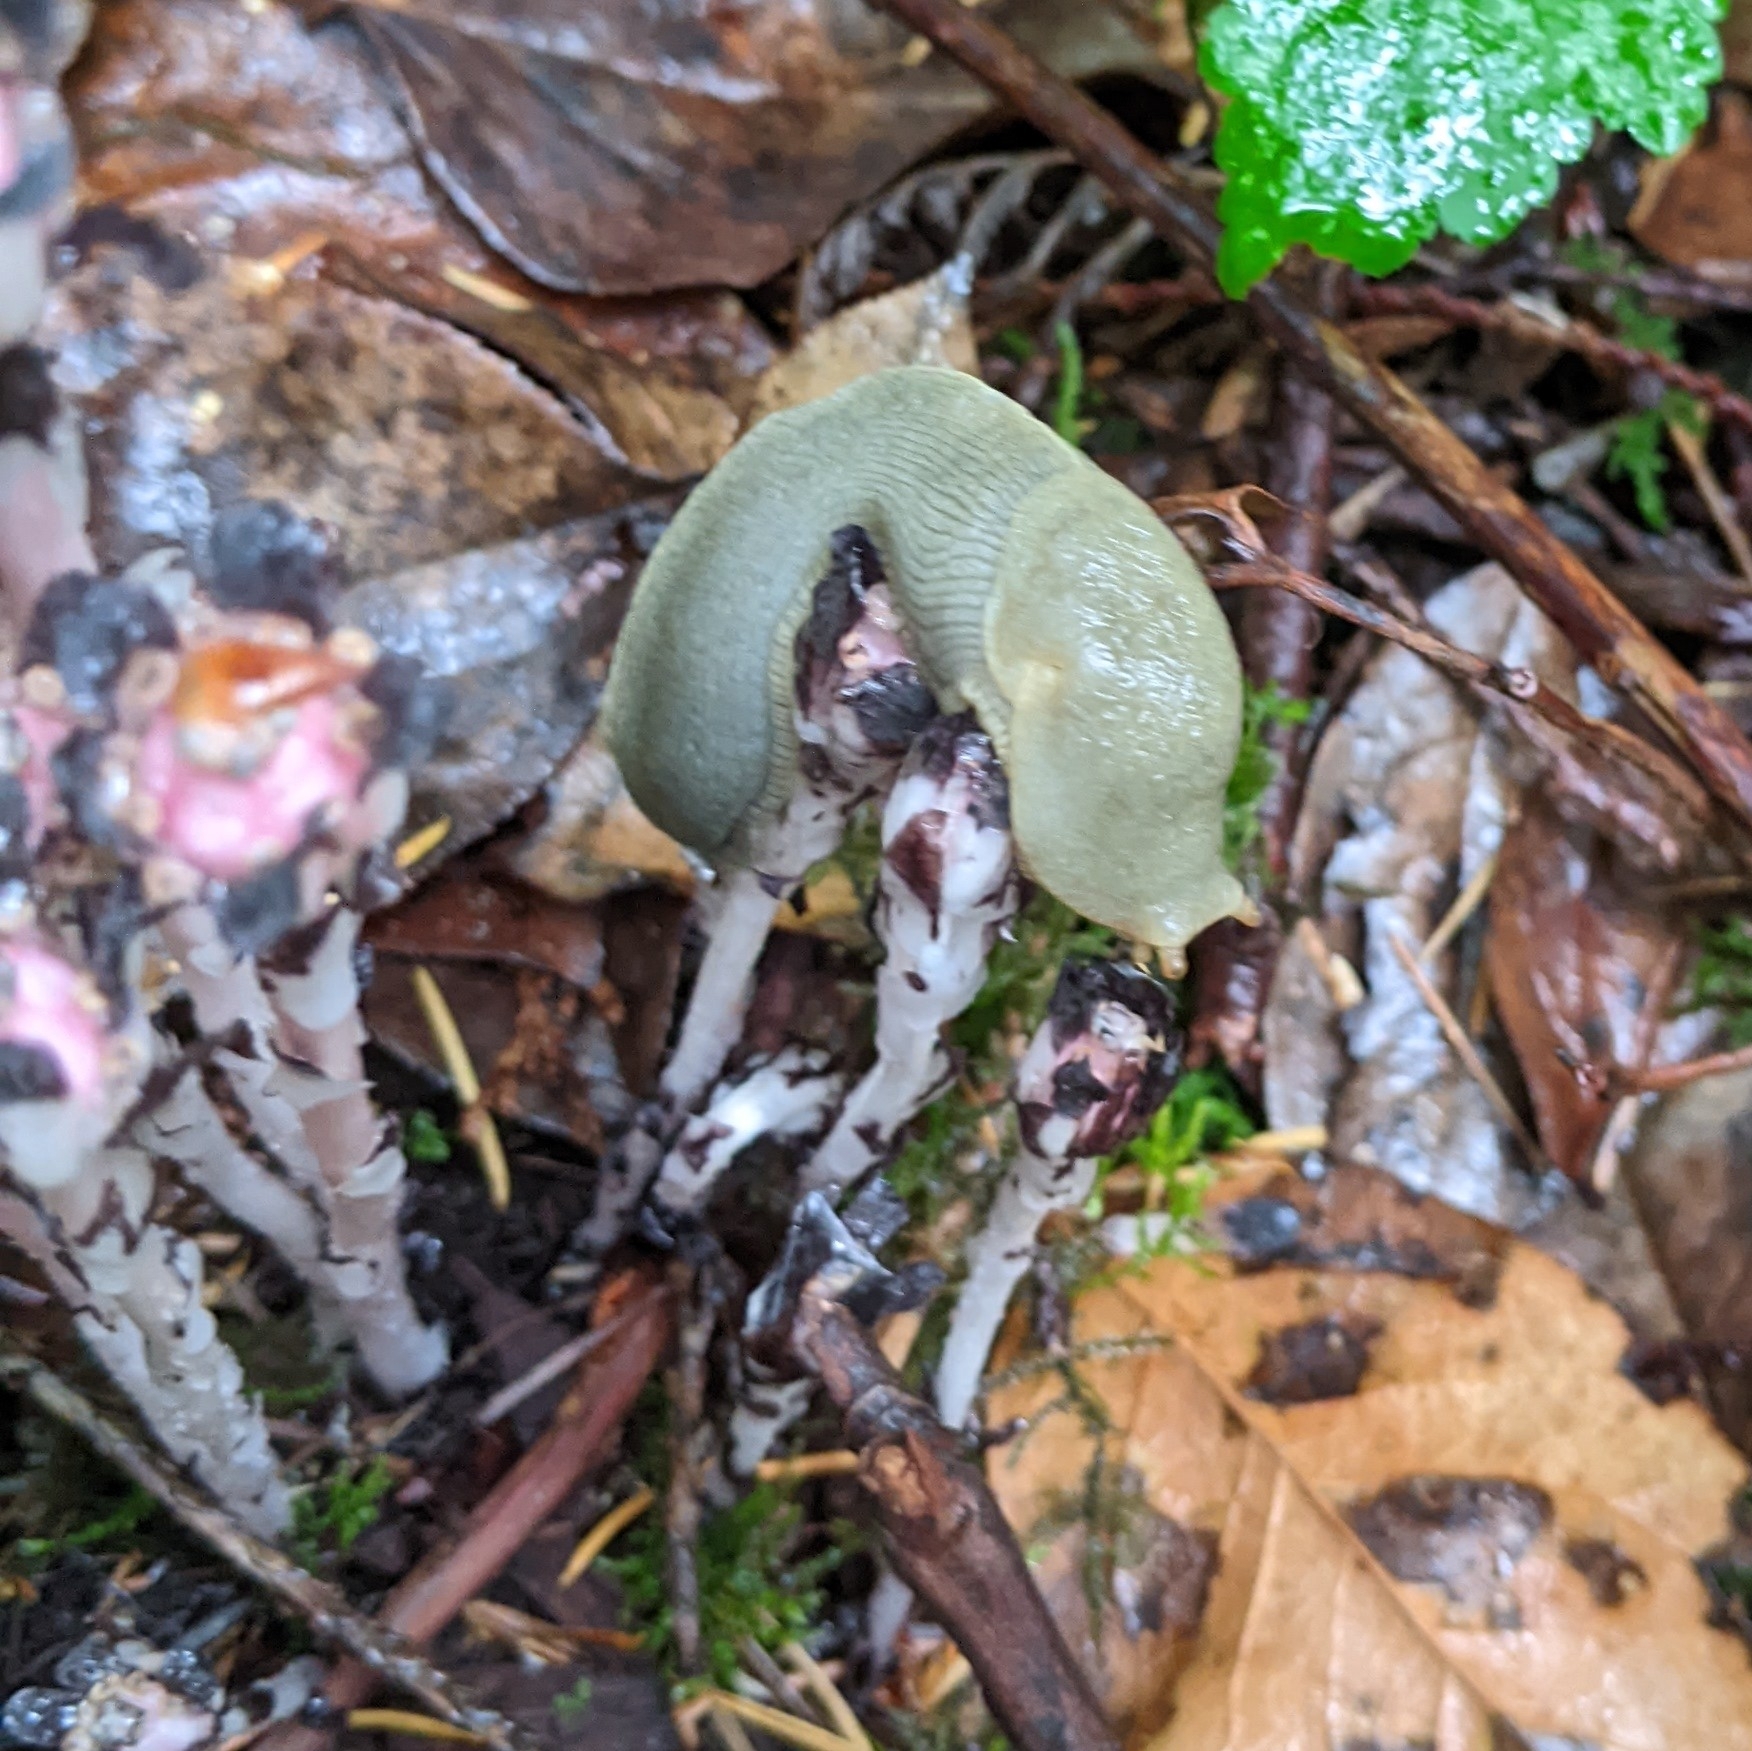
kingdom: Animalia
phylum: Mollusca
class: Gastropoda
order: Stylommatophora
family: Ariolimacidae
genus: Ariolimax
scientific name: Ariolimax columbianus
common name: Pacific banana slug
